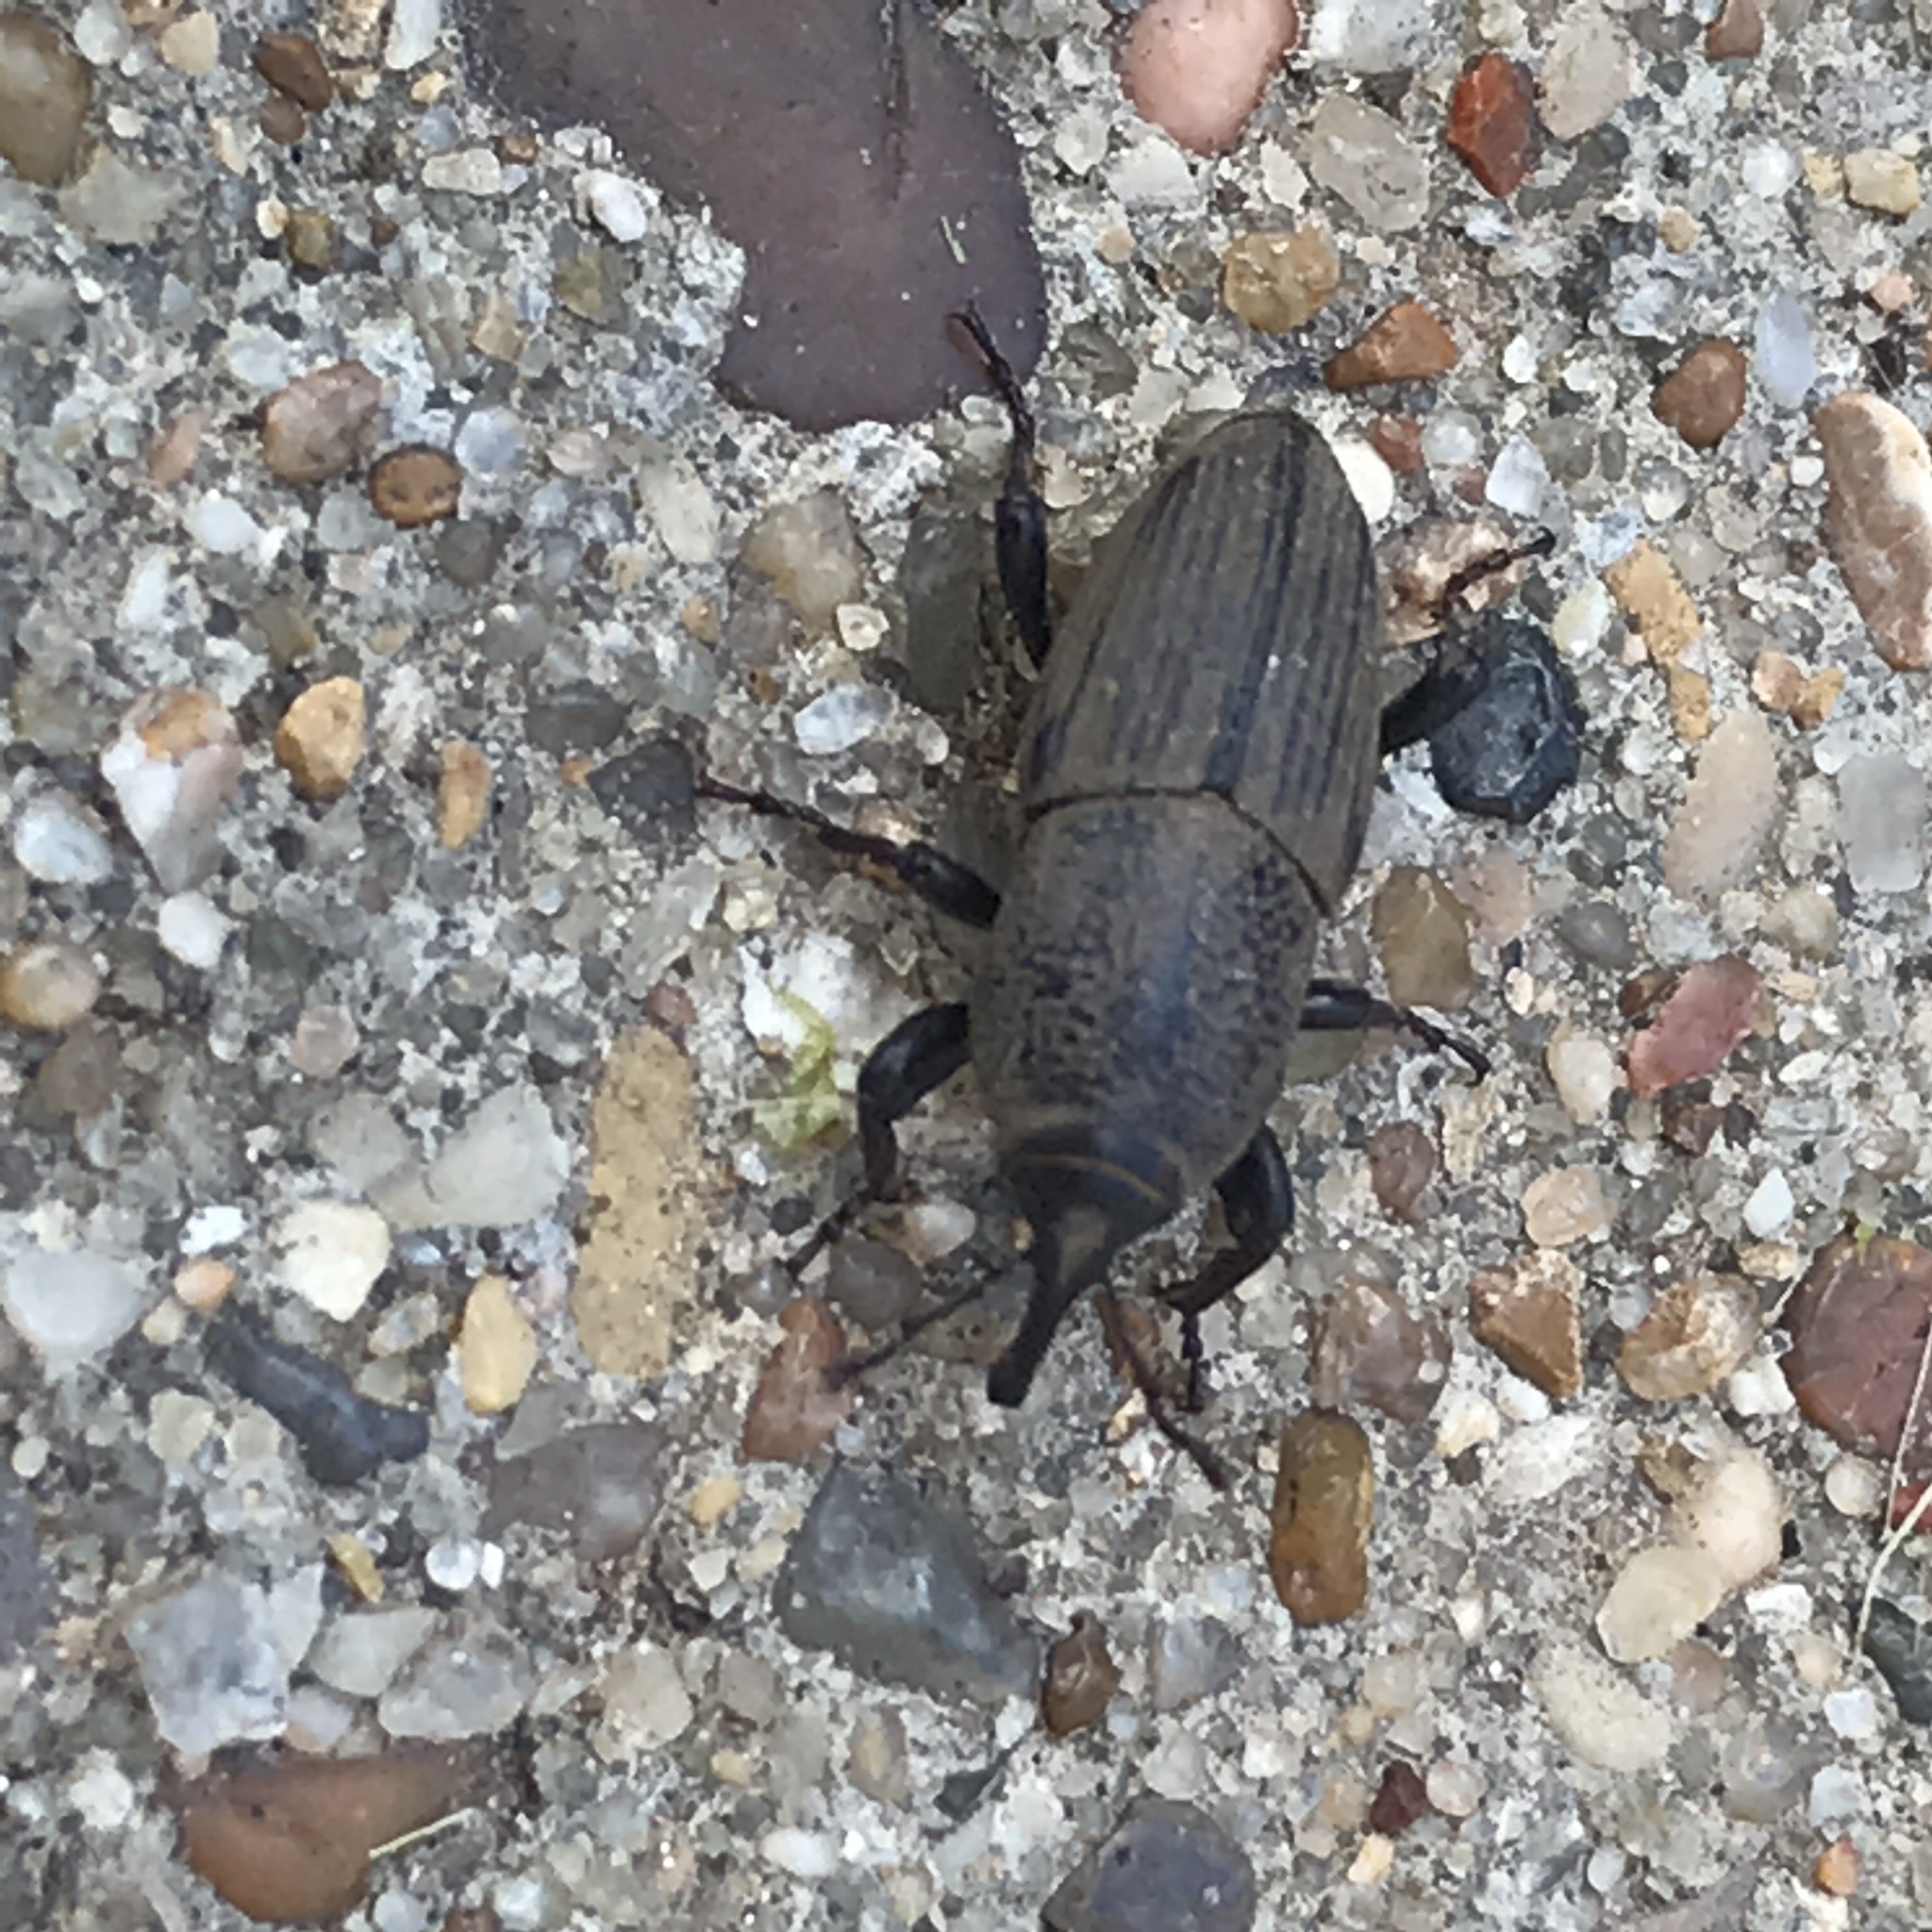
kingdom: Animalia
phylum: Arthropoda
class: Insecta
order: Coleoptera
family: Dryophthoridae
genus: Sphenophorus
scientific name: Sphenophorus coesifrons
